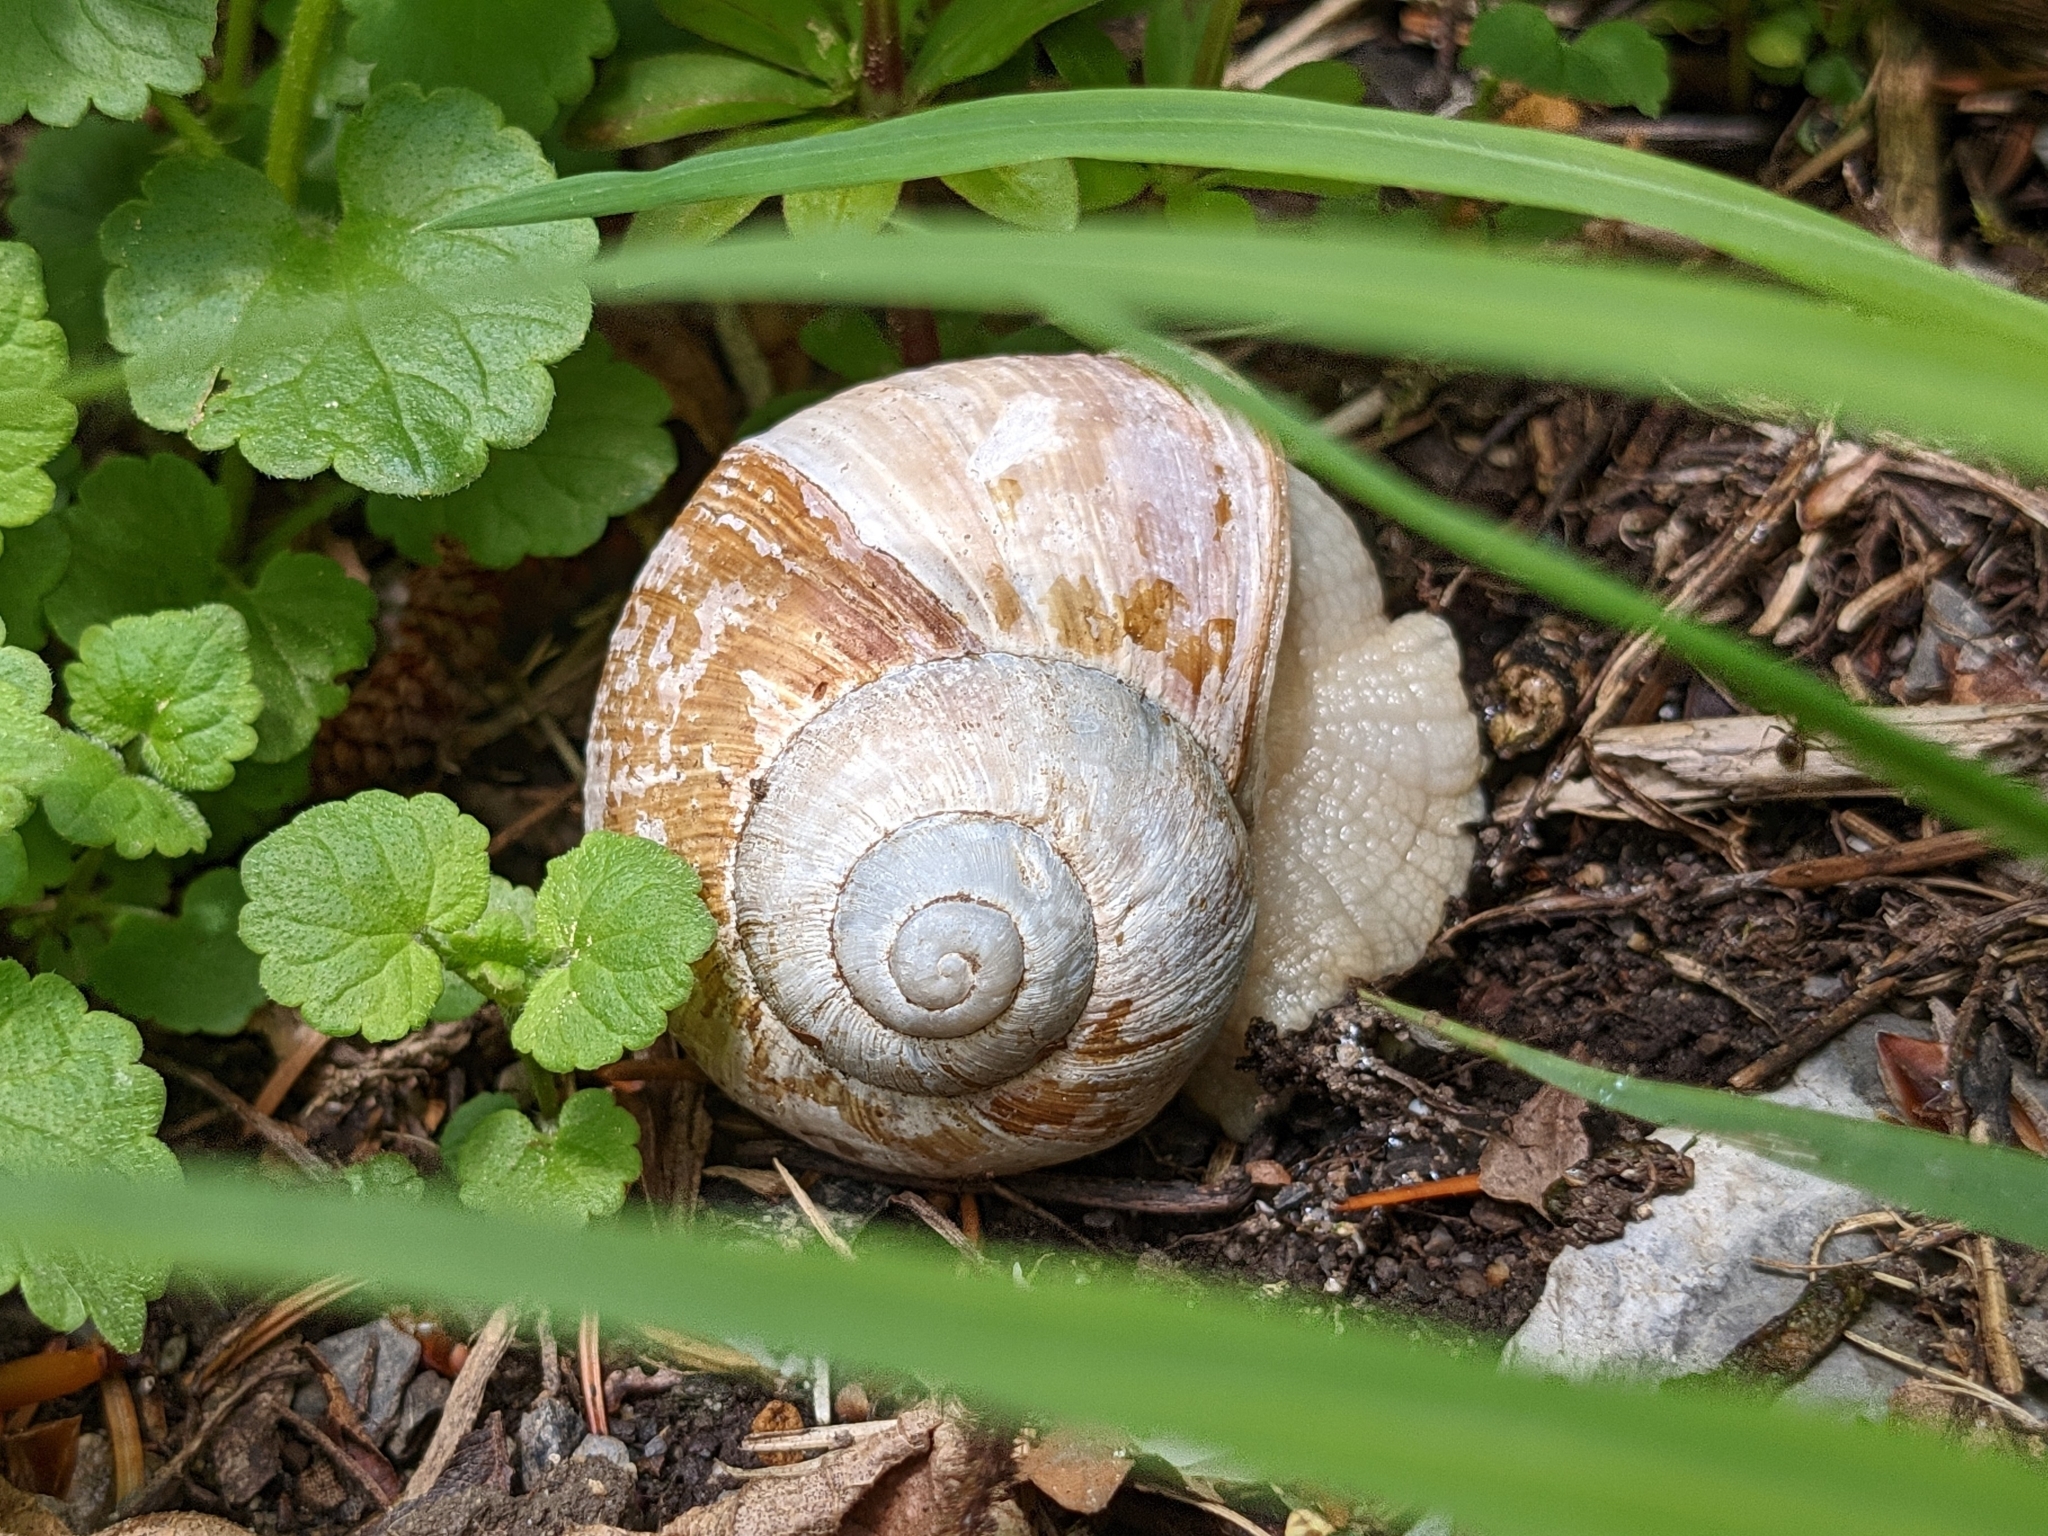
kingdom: Animalia
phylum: Mollusca
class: Gastropoda
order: Stylommatophora
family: Helicidae
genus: Helix
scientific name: Helix pomatia
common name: Roman snail
